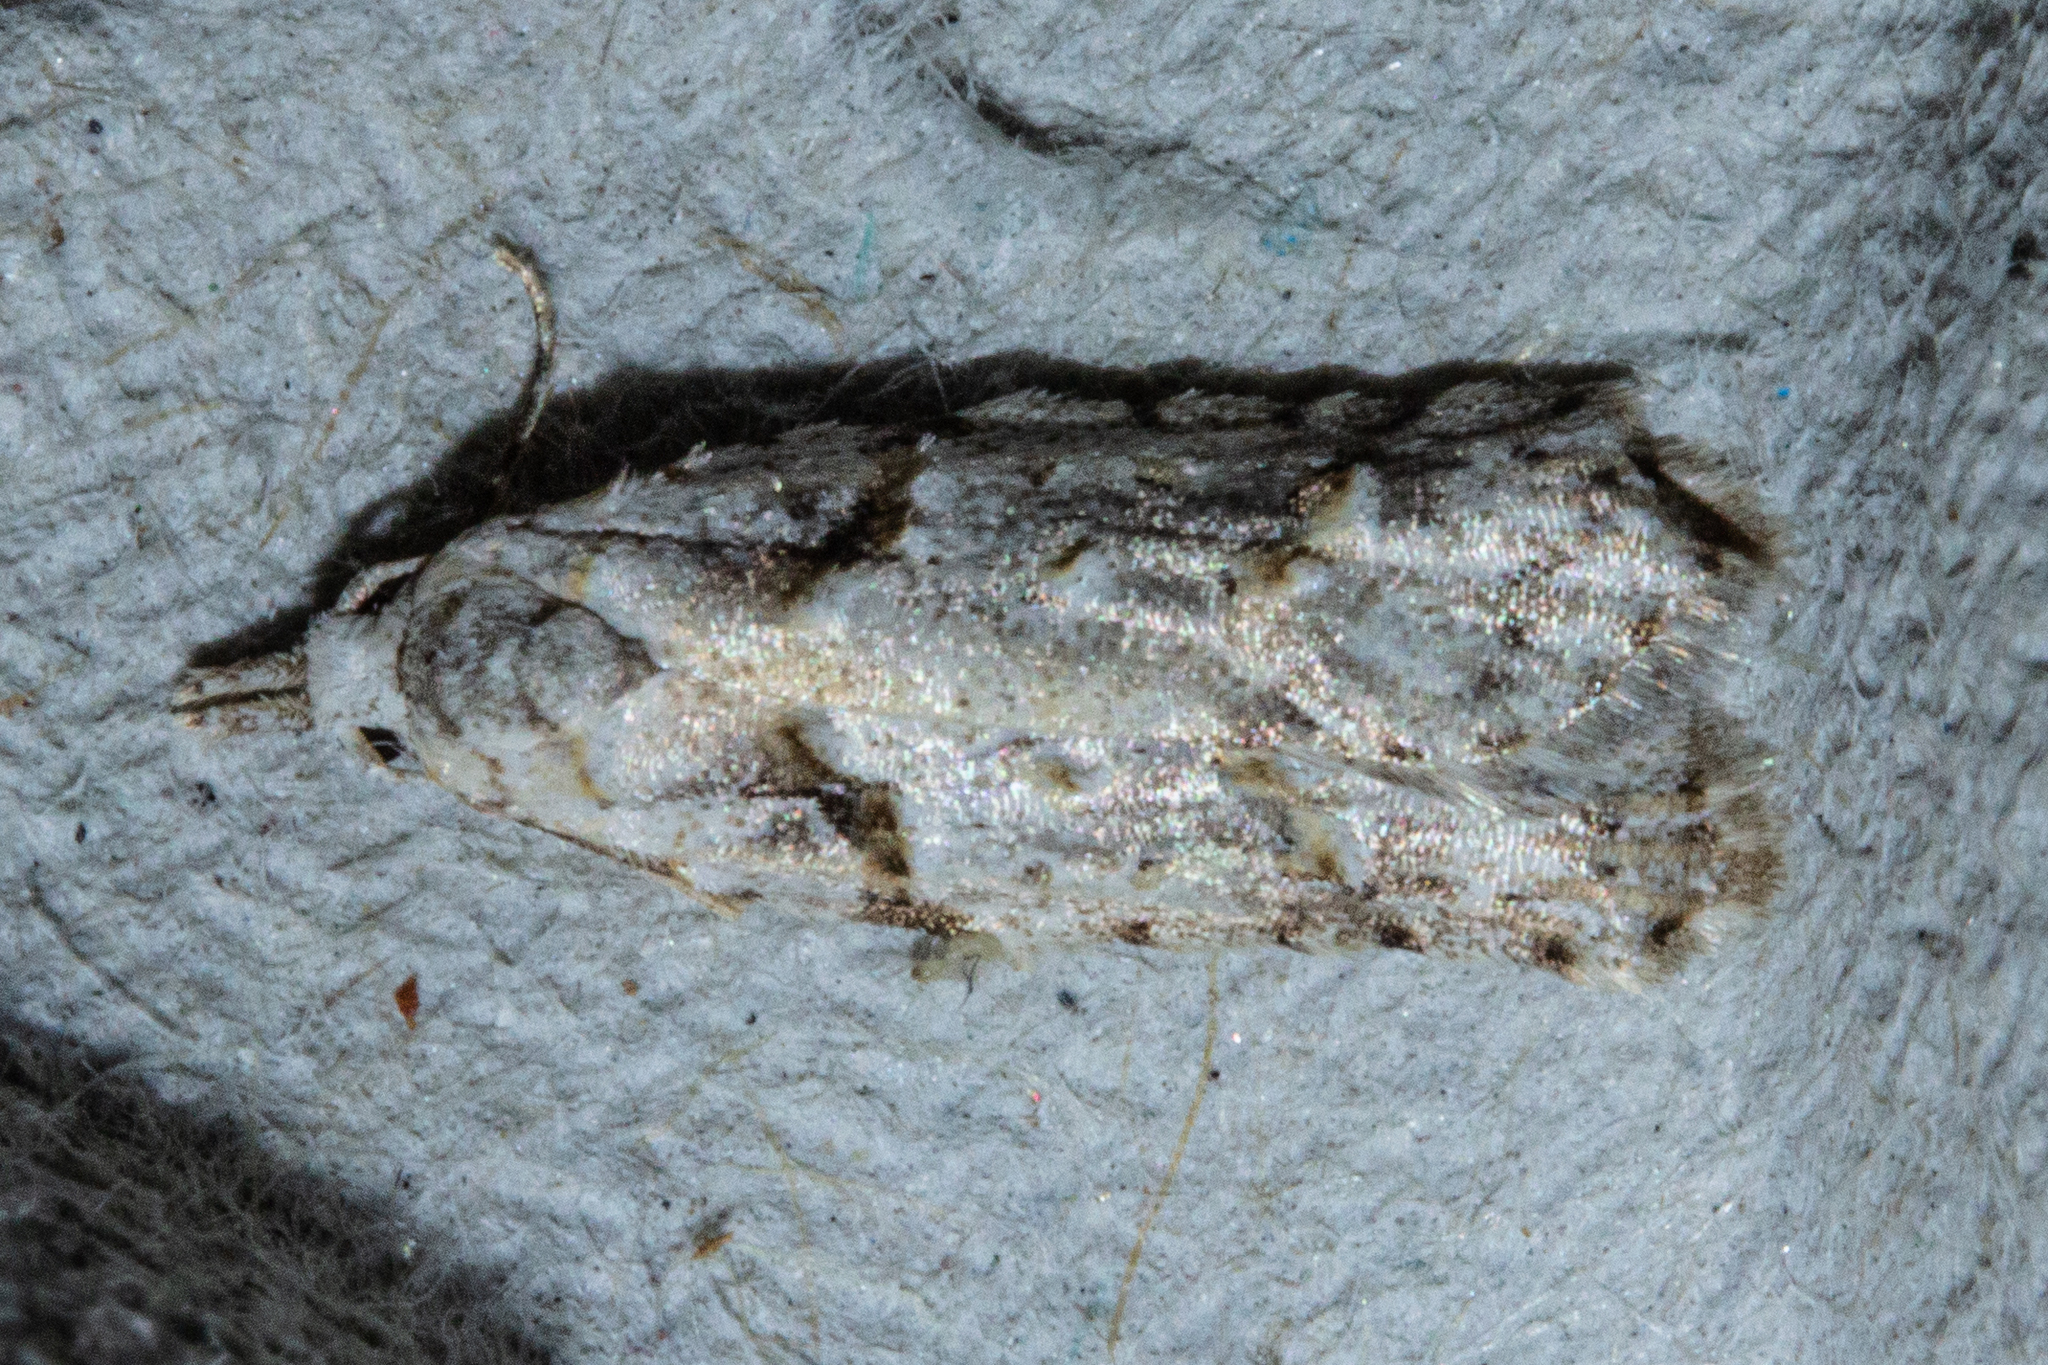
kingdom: Animalia
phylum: Arthropoda
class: Insecta
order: Lepidoptera
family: Carposinidae
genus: Carposina
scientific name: Carposina
